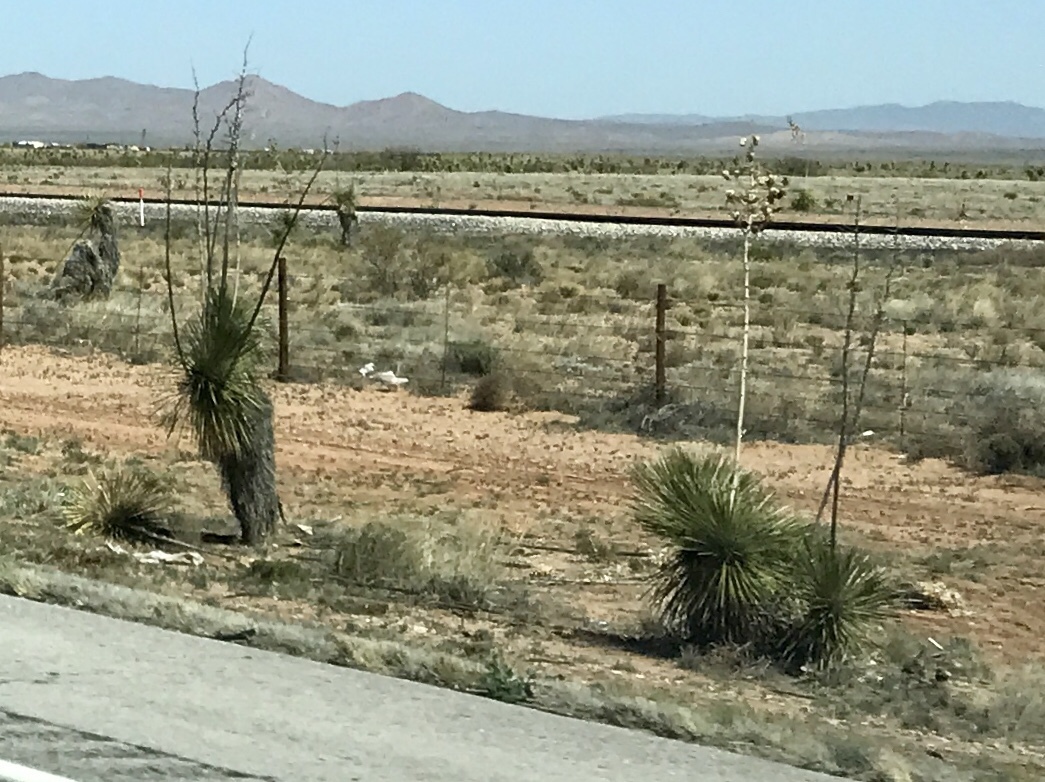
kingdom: Plantae
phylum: Tracheophyta
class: Liliopsida
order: Asparagales
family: Asparagaceae
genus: Yucca
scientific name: Yucca elata
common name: Palmella
